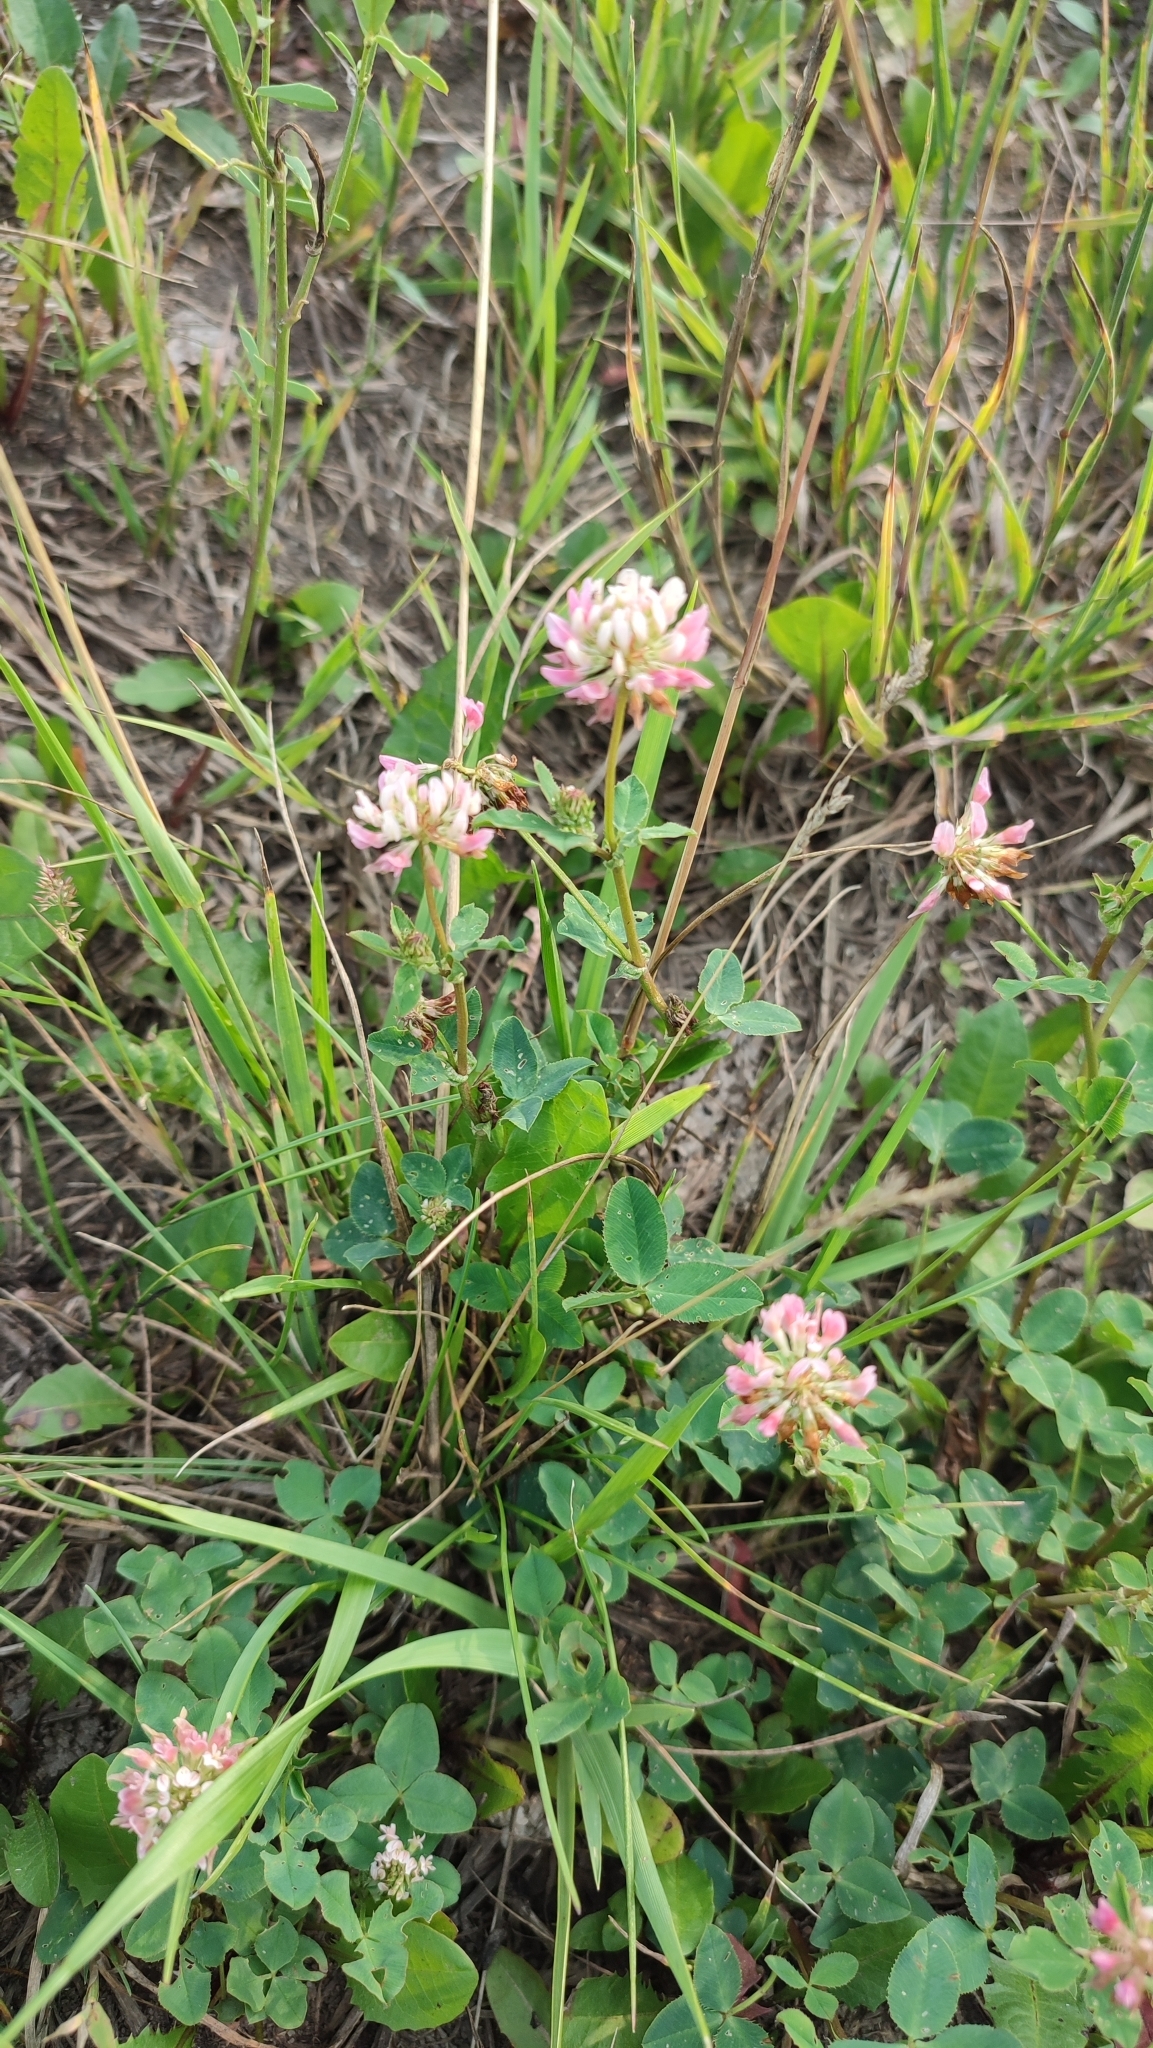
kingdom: Plantae
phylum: Tracheophyta
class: Magnoliopsida
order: Fabales
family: Fabaceae
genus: Trifolium
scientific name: Trifolium hybridum
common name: Alsike clover
